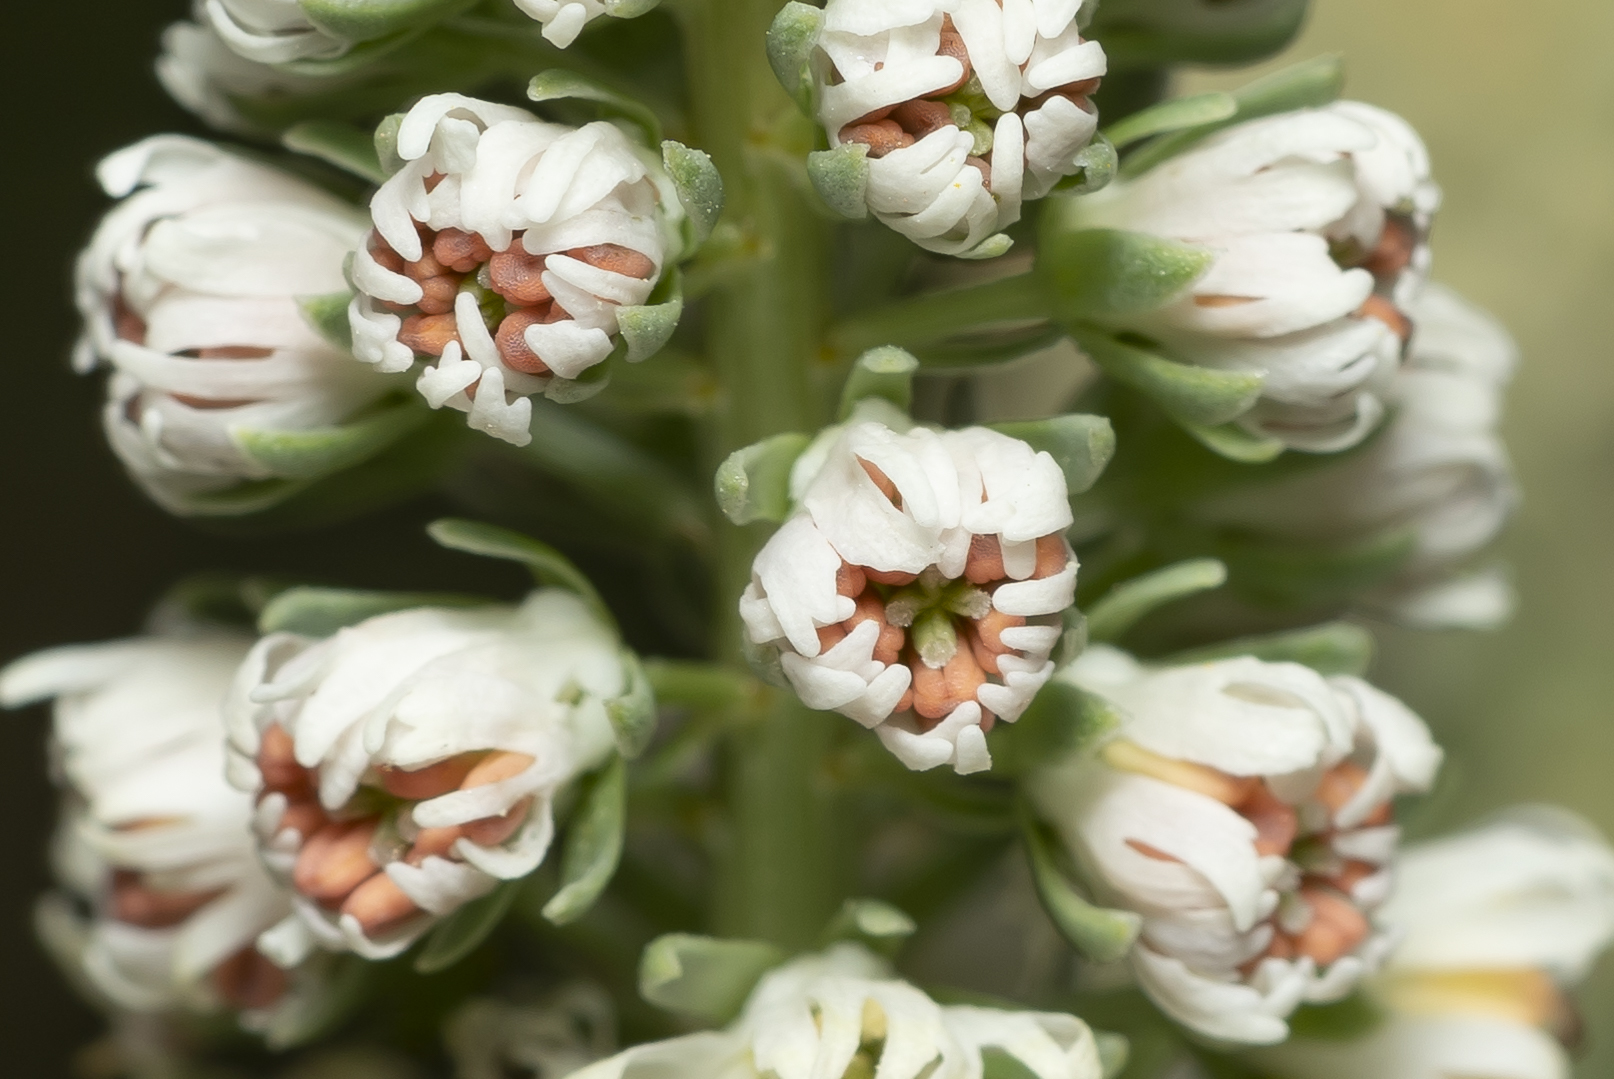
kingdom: Plantae
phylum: Tracheophyta
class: Magnoliopsida
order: Brassicales
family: Resedaceae
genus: Reseda
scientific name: Reseda alba
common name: White mignonette
